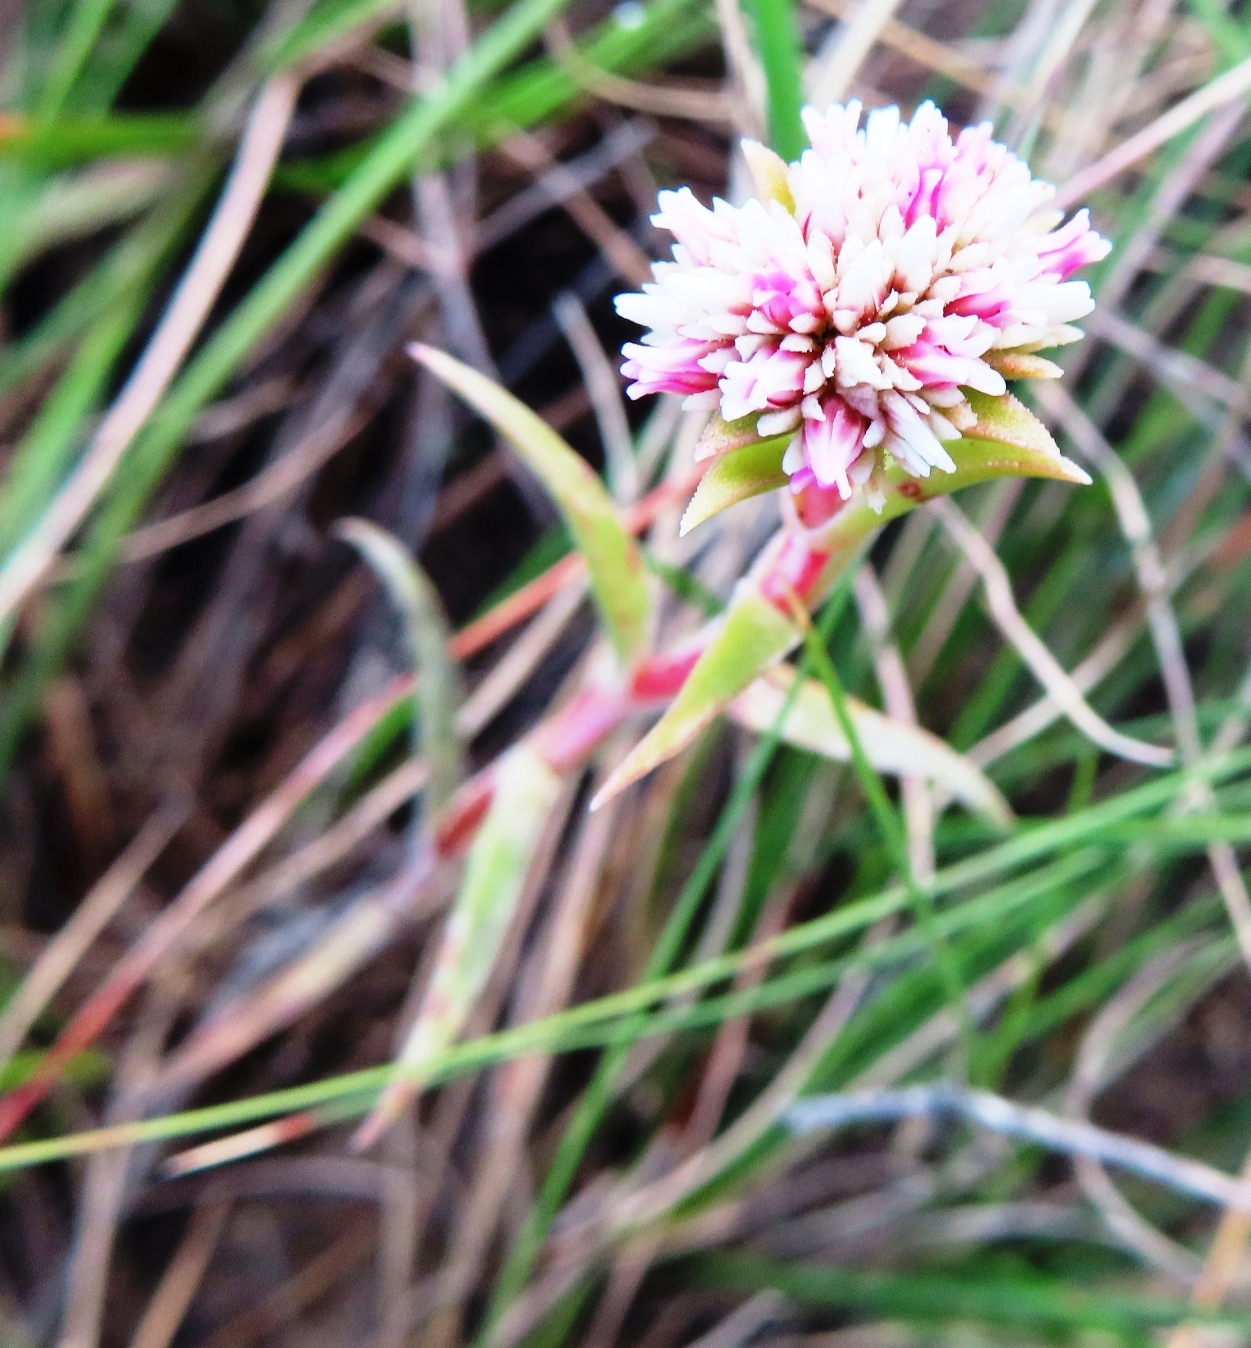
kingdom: Plantae
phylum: Tracheophyta
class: Magnoliopsida
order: Saxifragales
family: Crassulaceae
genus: Crassula
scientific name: Crassula subulata
